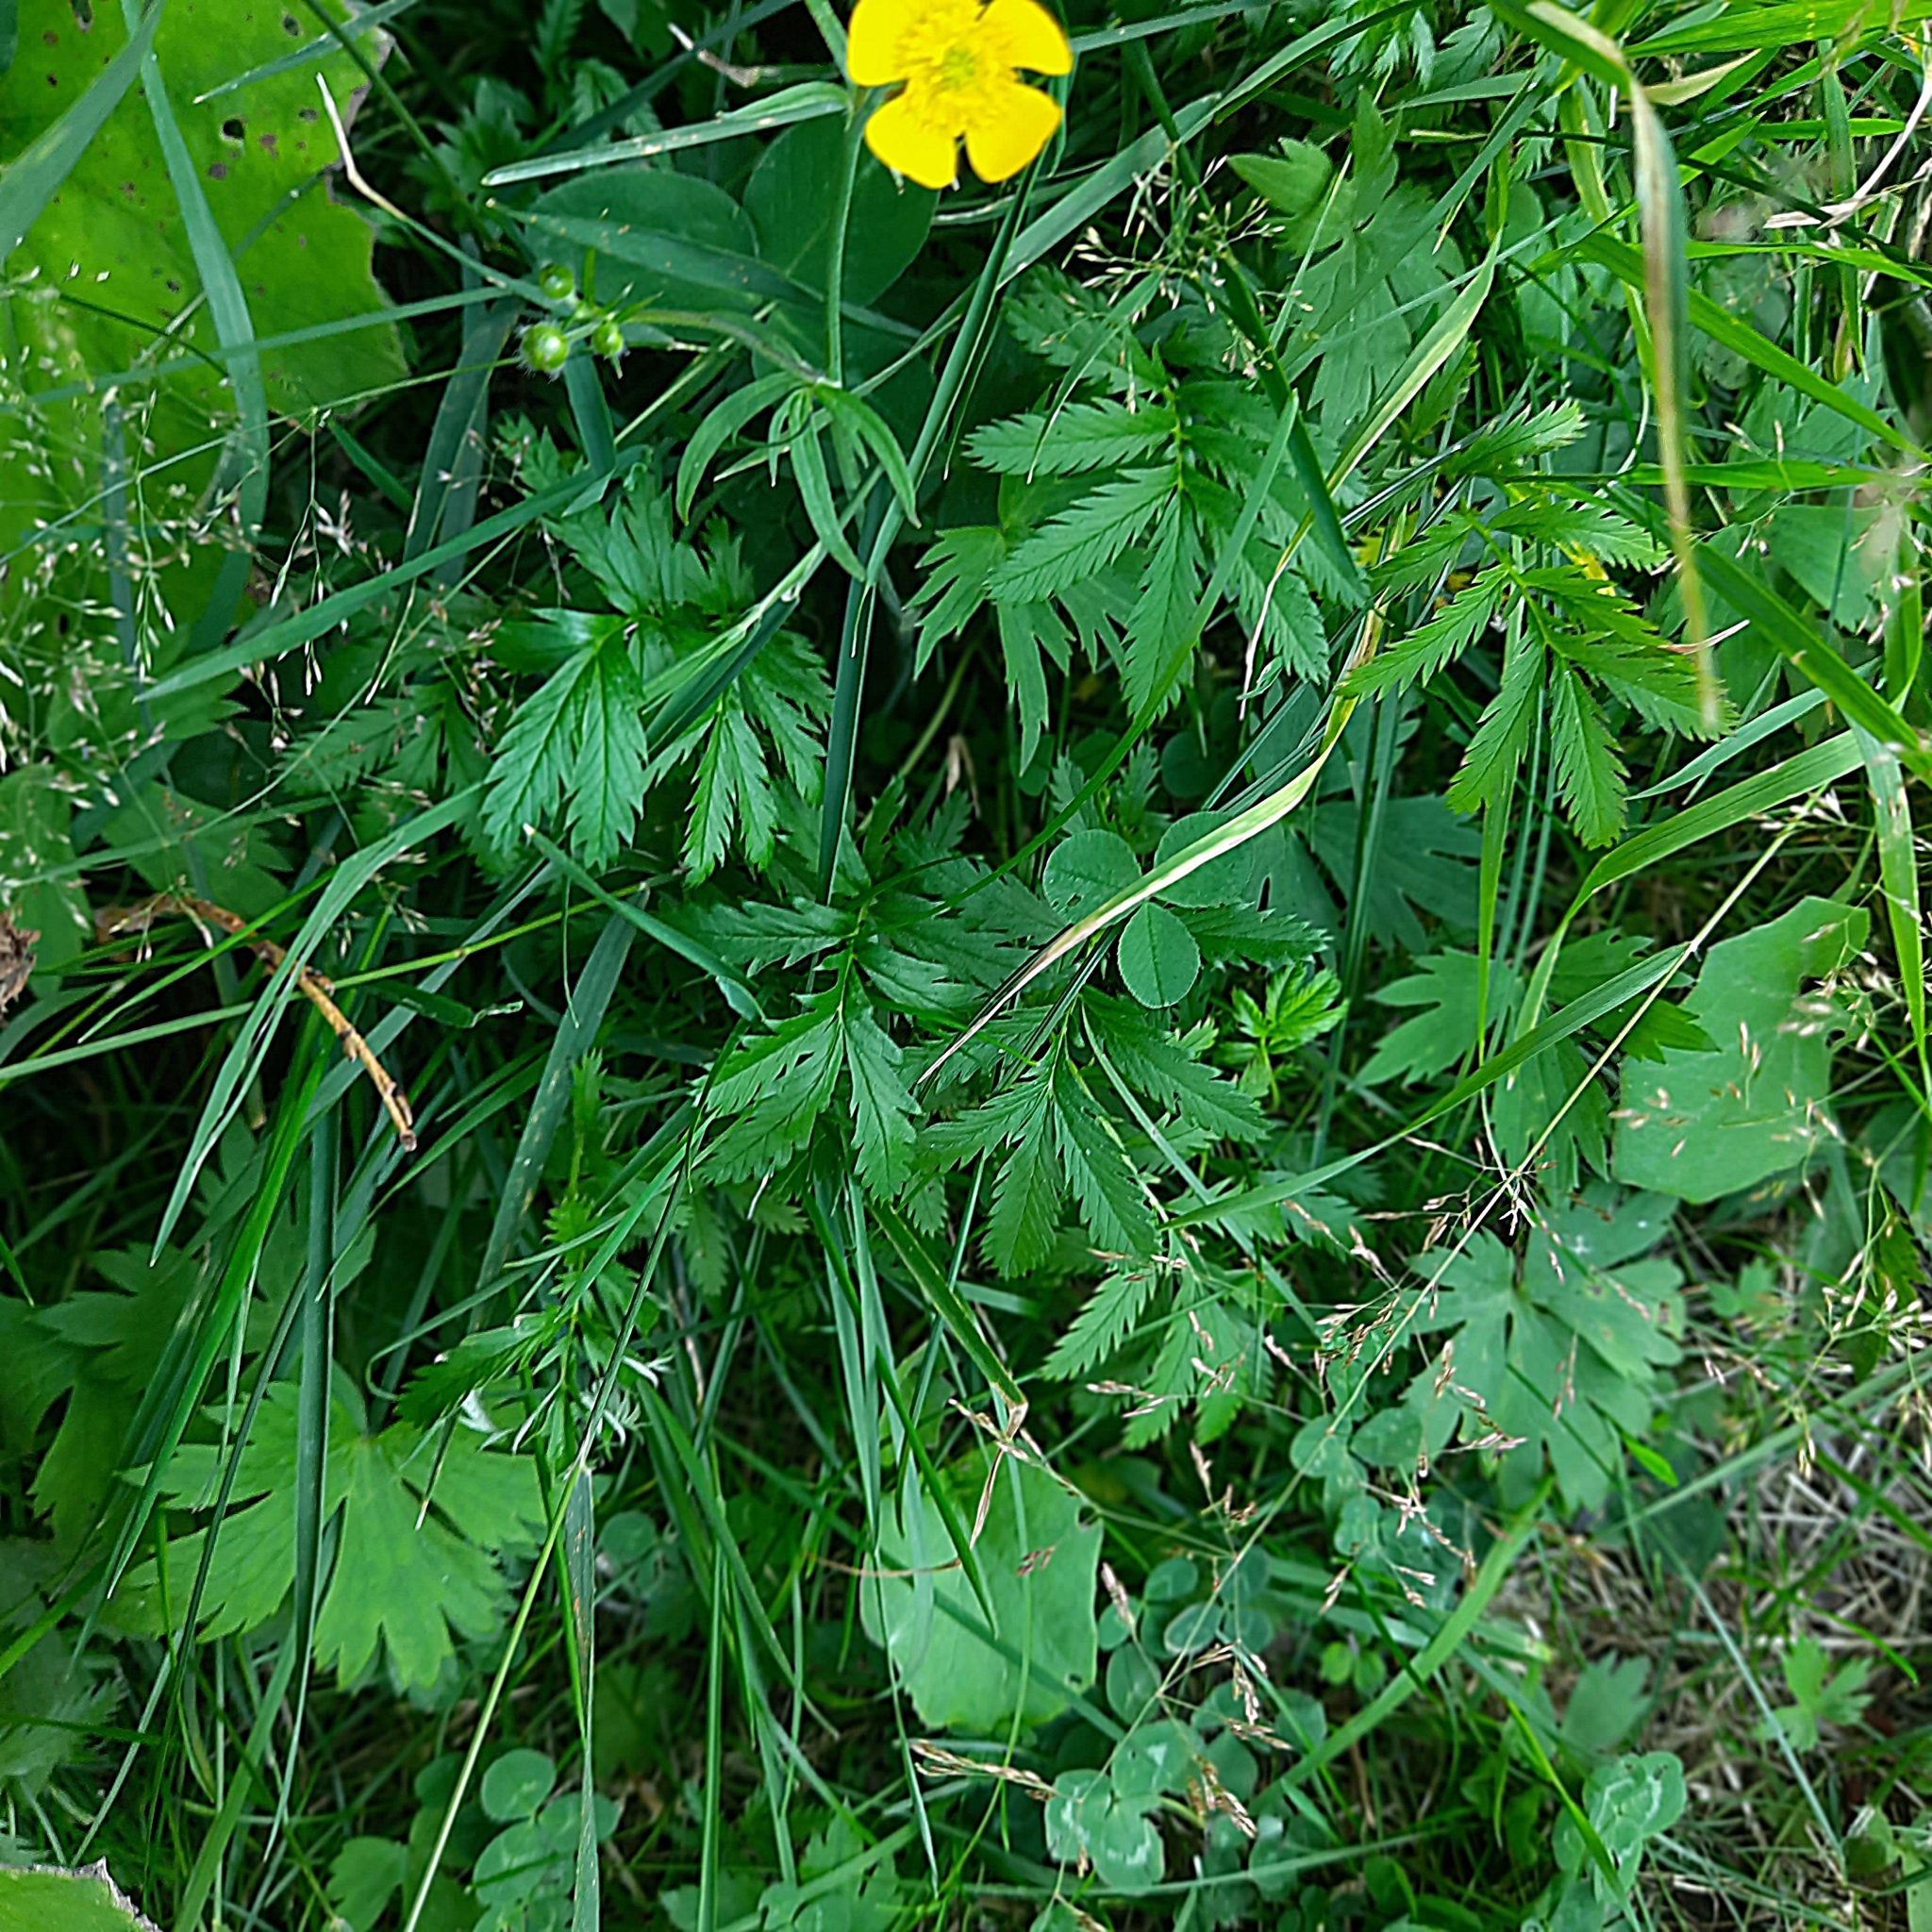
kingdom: Plantae
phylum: Tracheophyta
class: Magnoliopsida
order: Rosales
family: Rosaceae
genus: Argentina
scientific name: Argentina anserina
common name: Common silverweed
